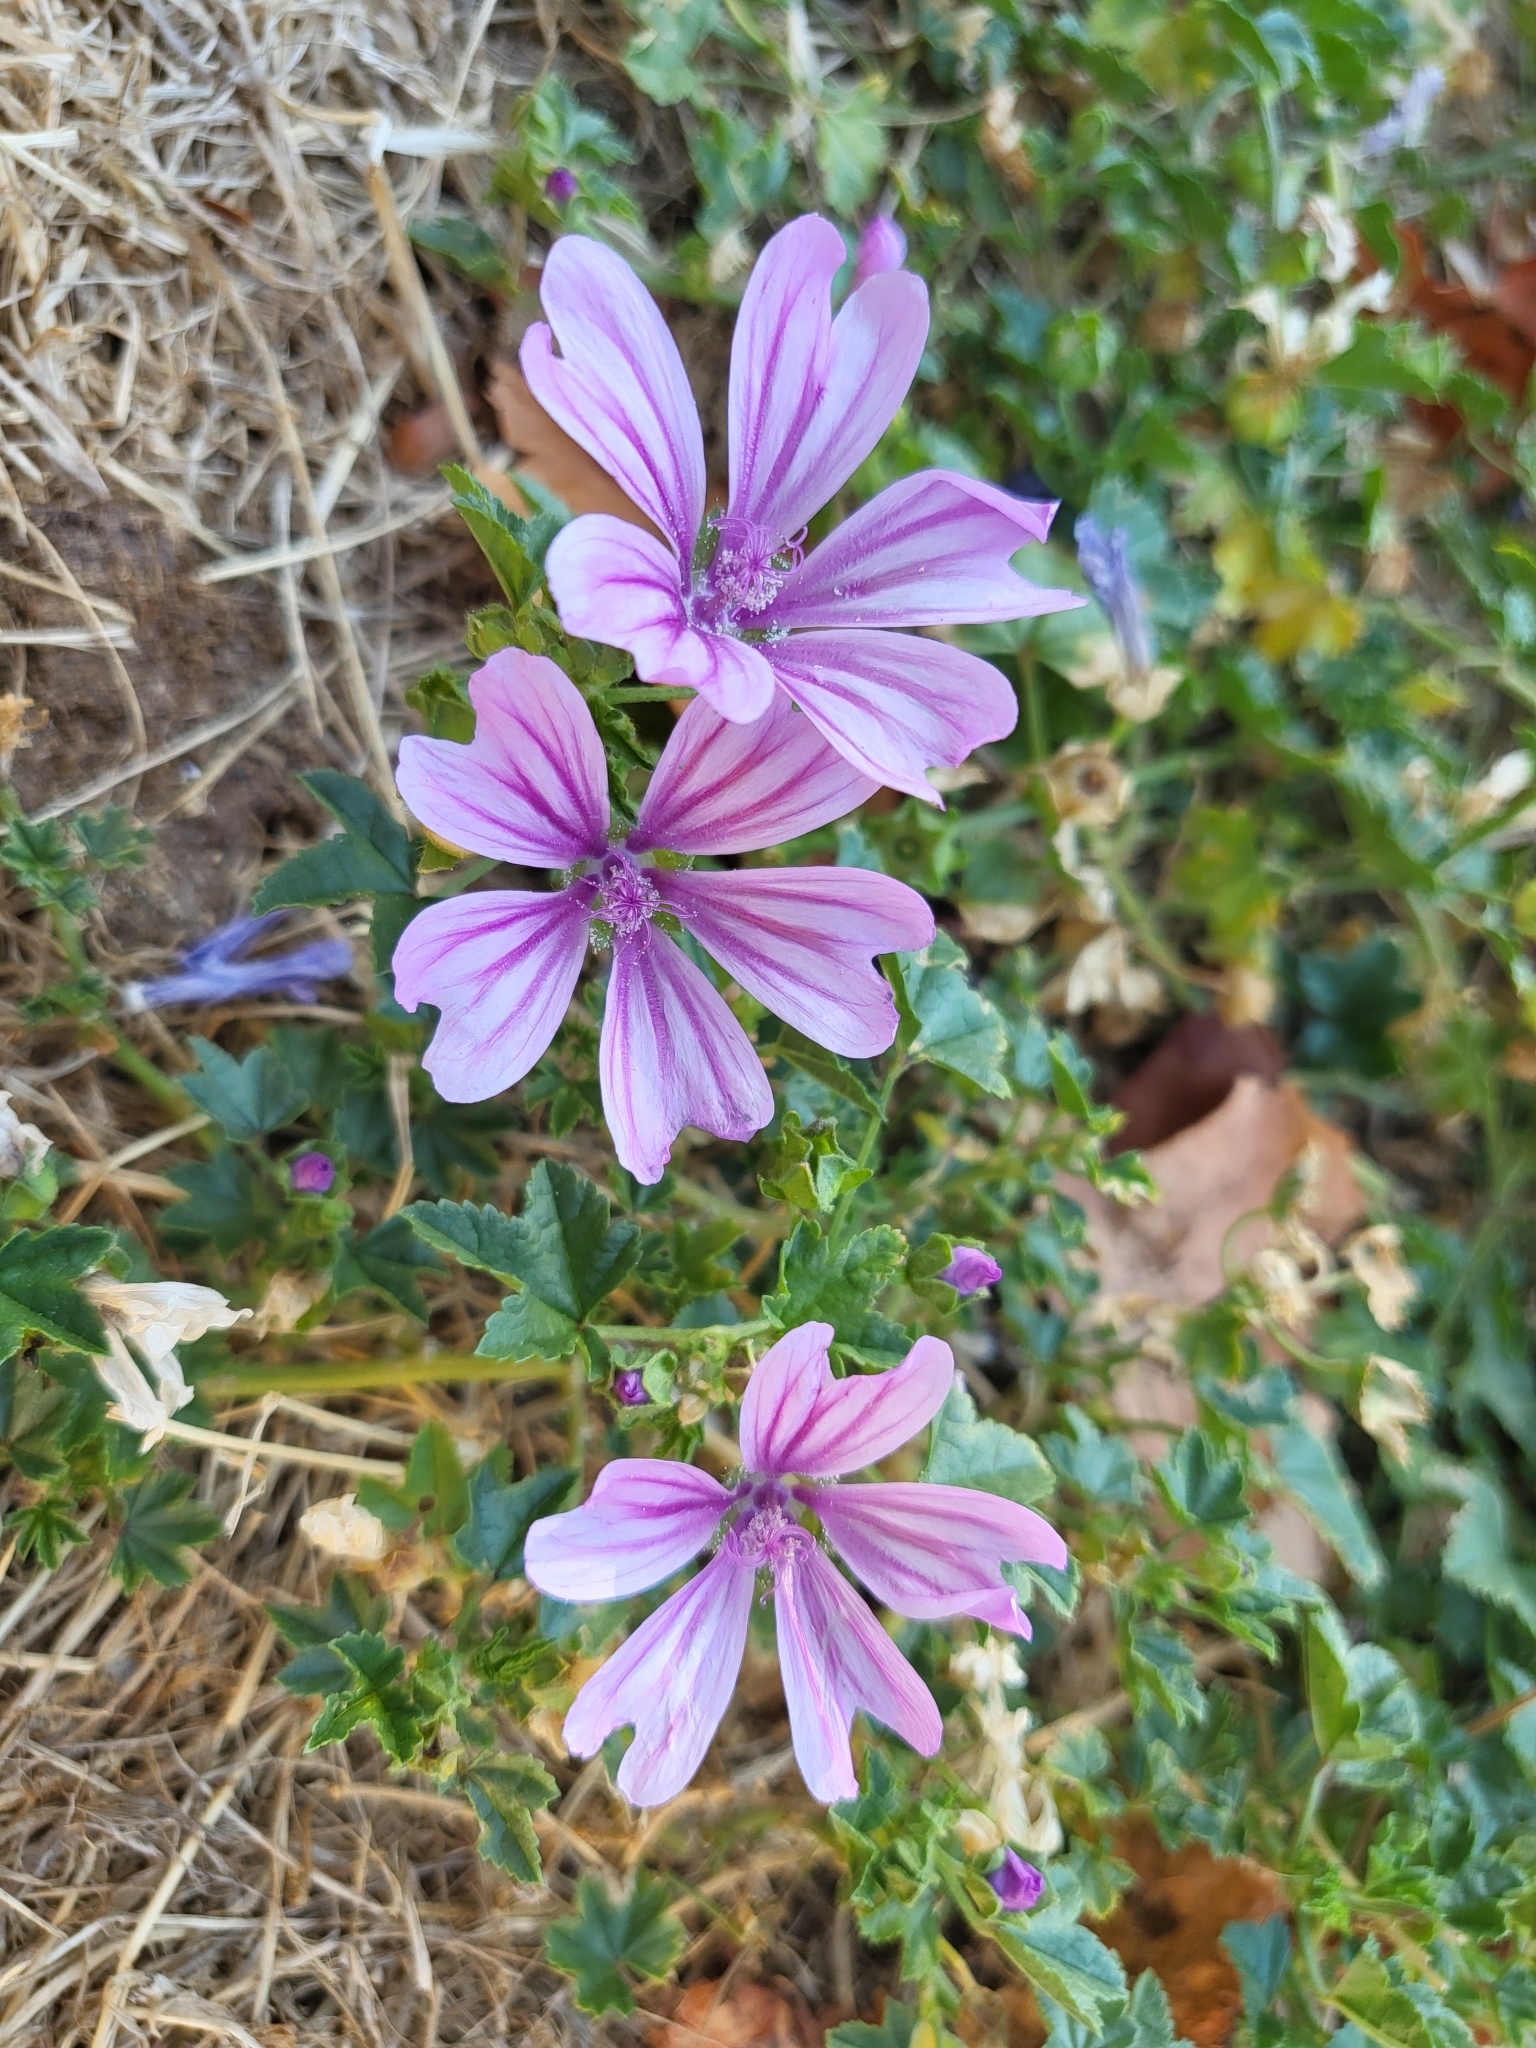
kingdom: Plantae
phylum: Tracheophyta
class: Magnoliopsida
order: Malvales
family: Malvaceae
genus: Malva
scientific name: Malva sylvestris
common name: Common mallow
